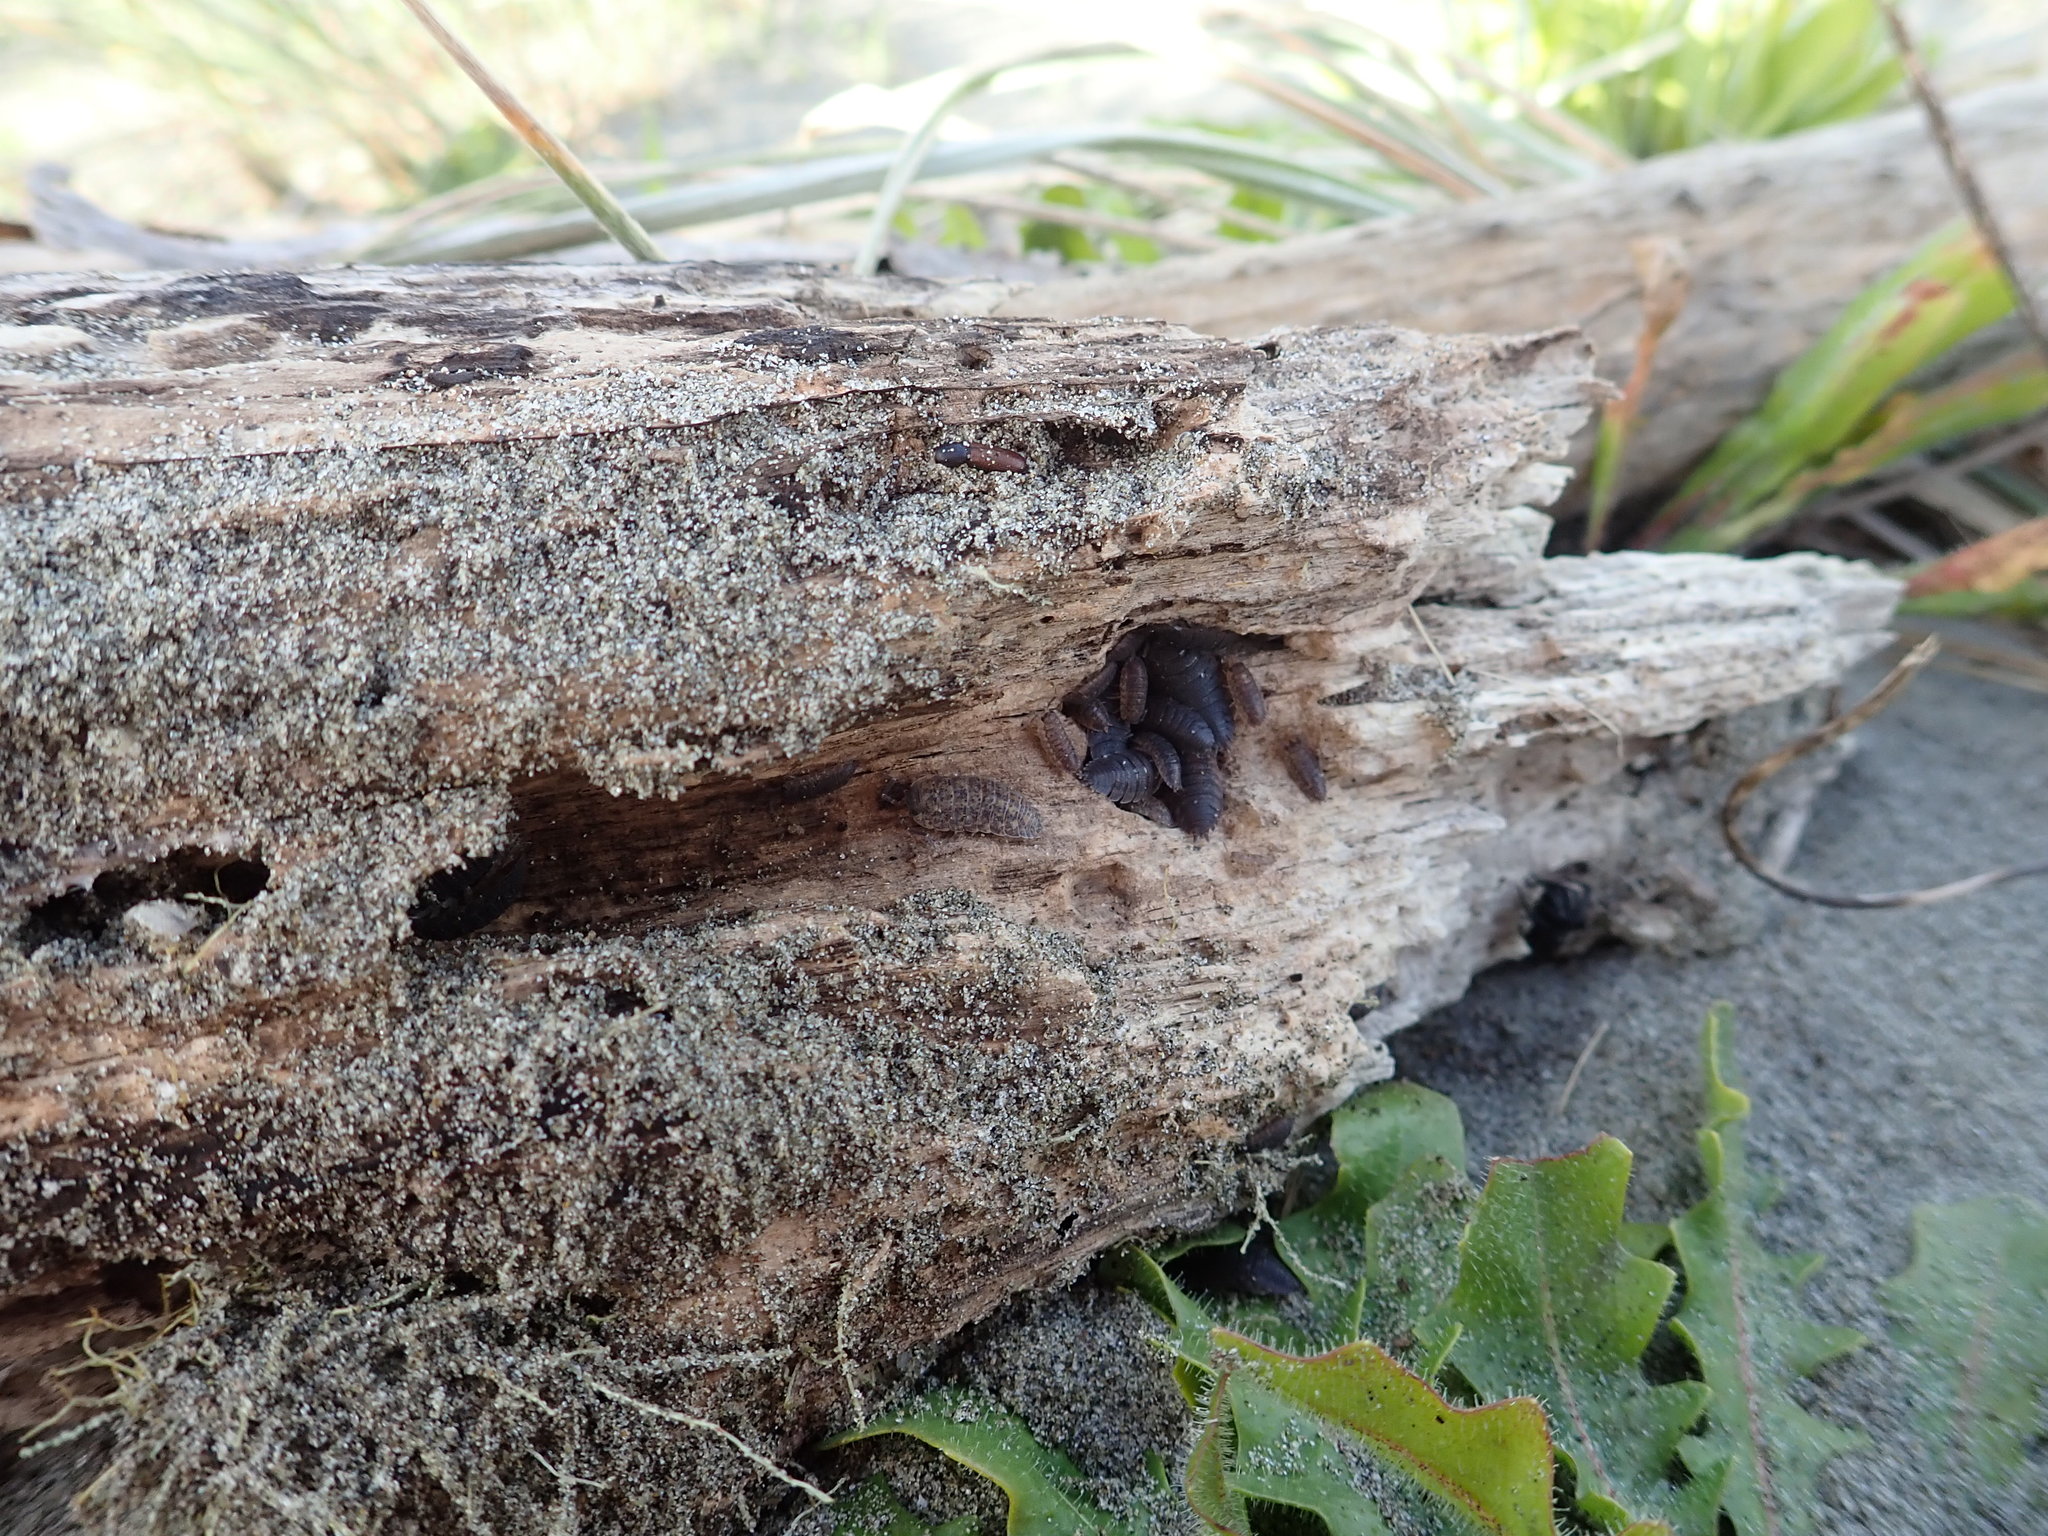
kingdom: Animalia
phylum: Arthropoda
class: Malacostraca
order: Isopoda
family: Porcellionidae
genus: Porcellio
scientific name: Porcellio scaber
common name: Common rough woodlouse
